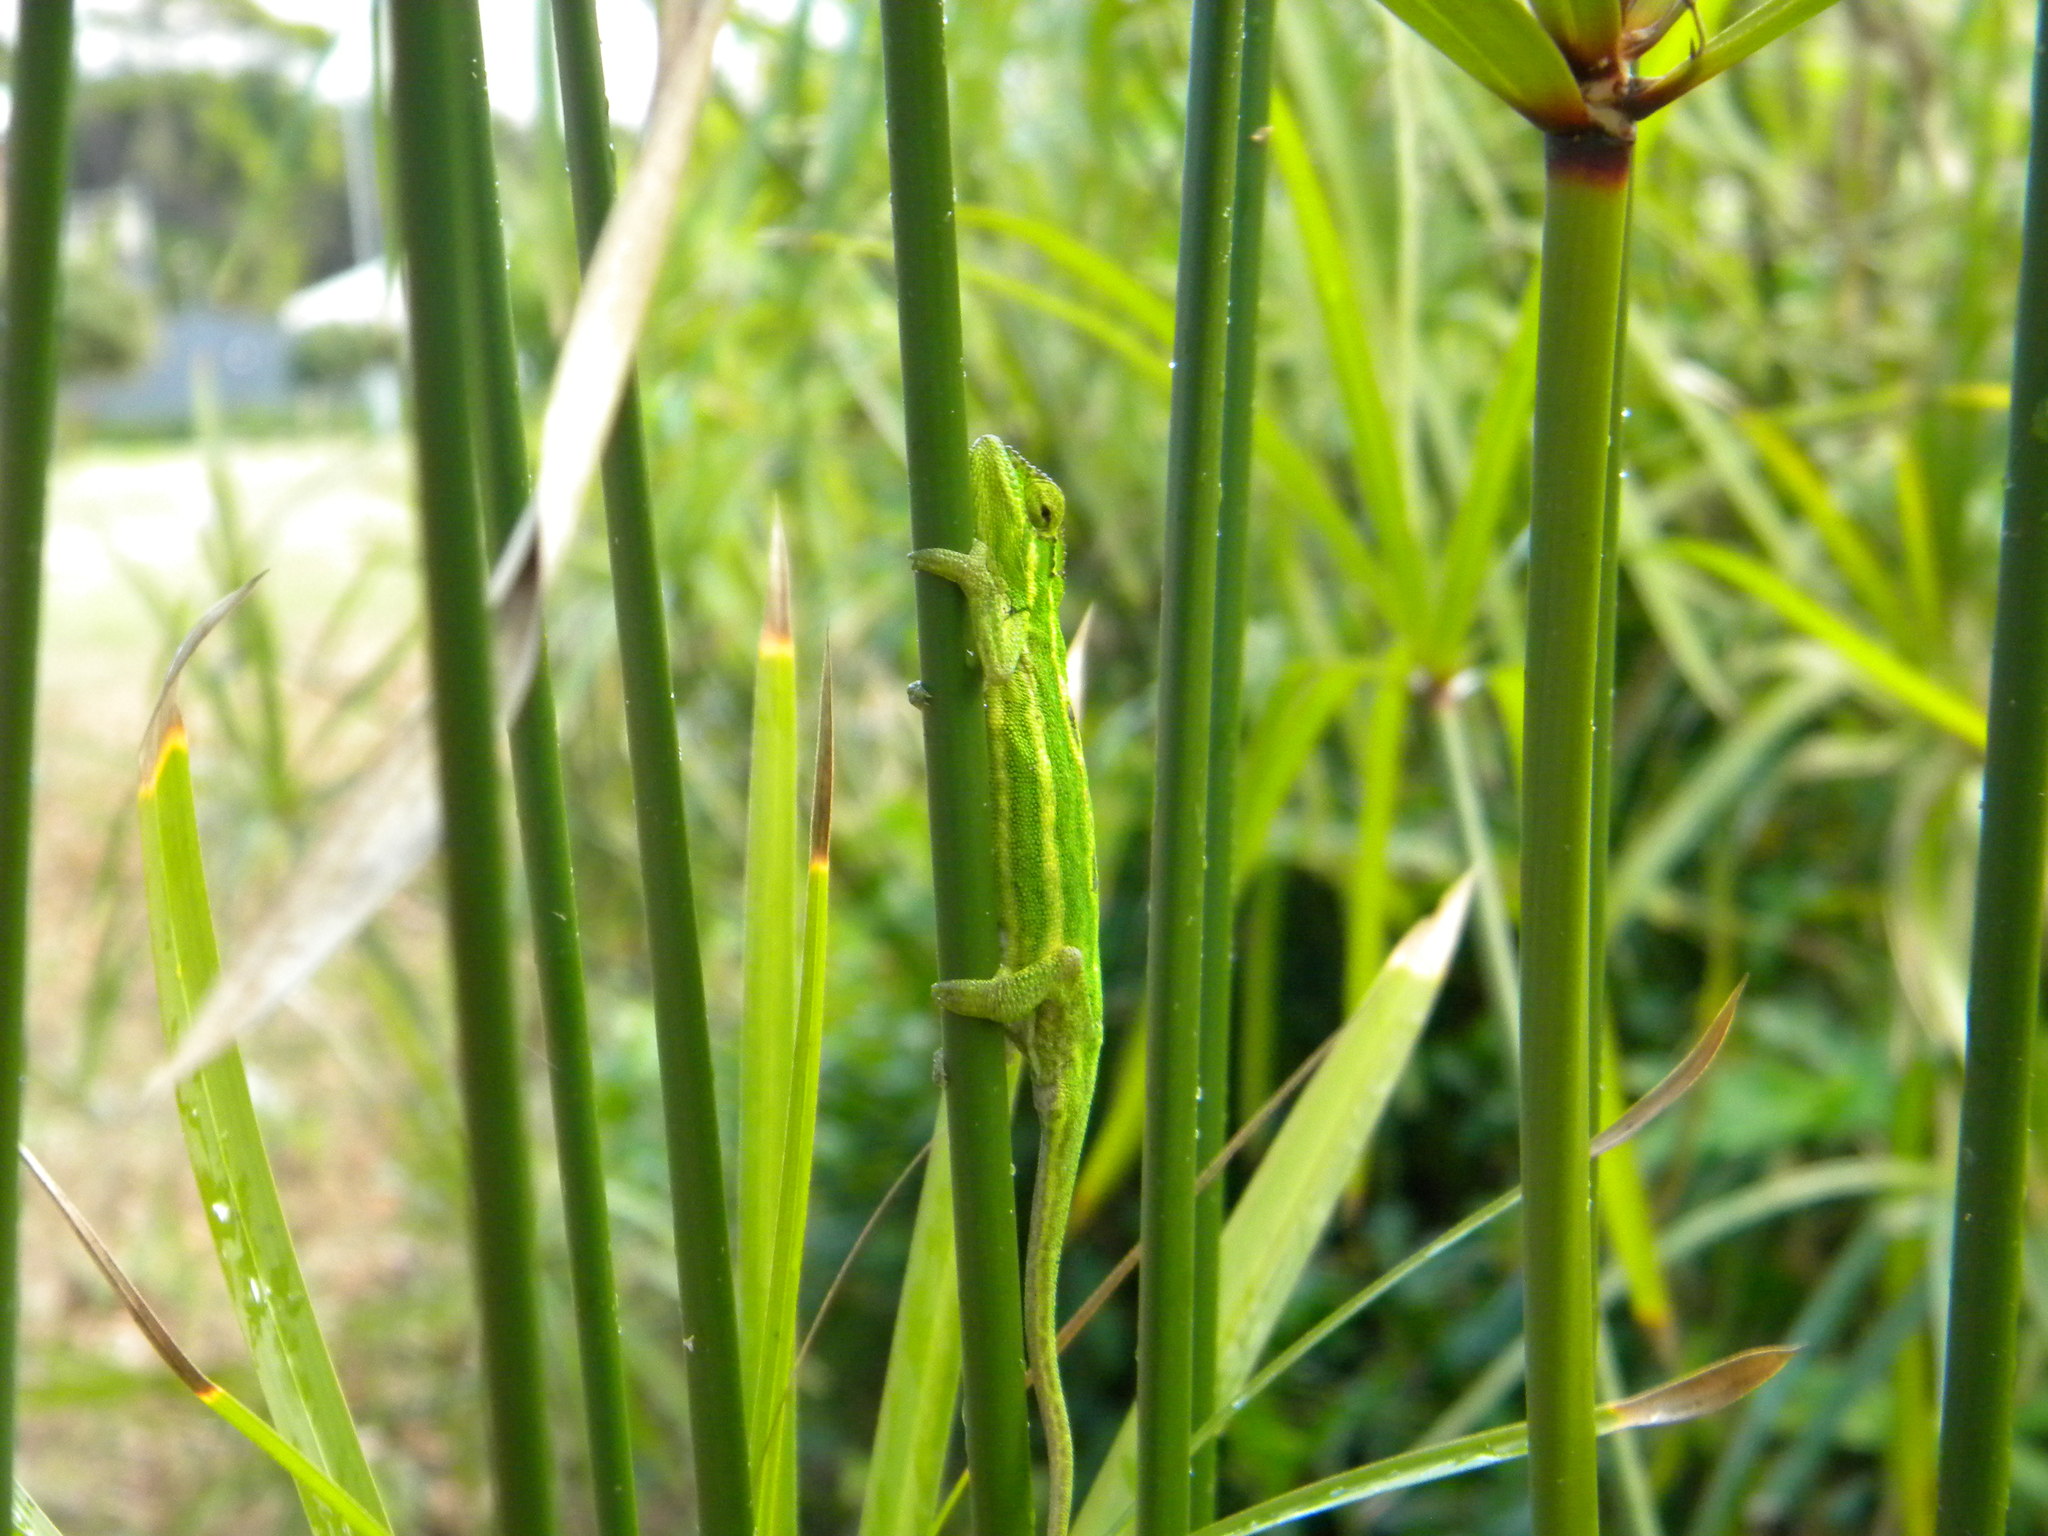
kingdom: Animalia
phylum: Chordata
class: Squamata
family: Chamaeleonidae
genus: Bradypodion
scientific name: Bradypodion pumilum
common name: Cape dwarf chameleon
